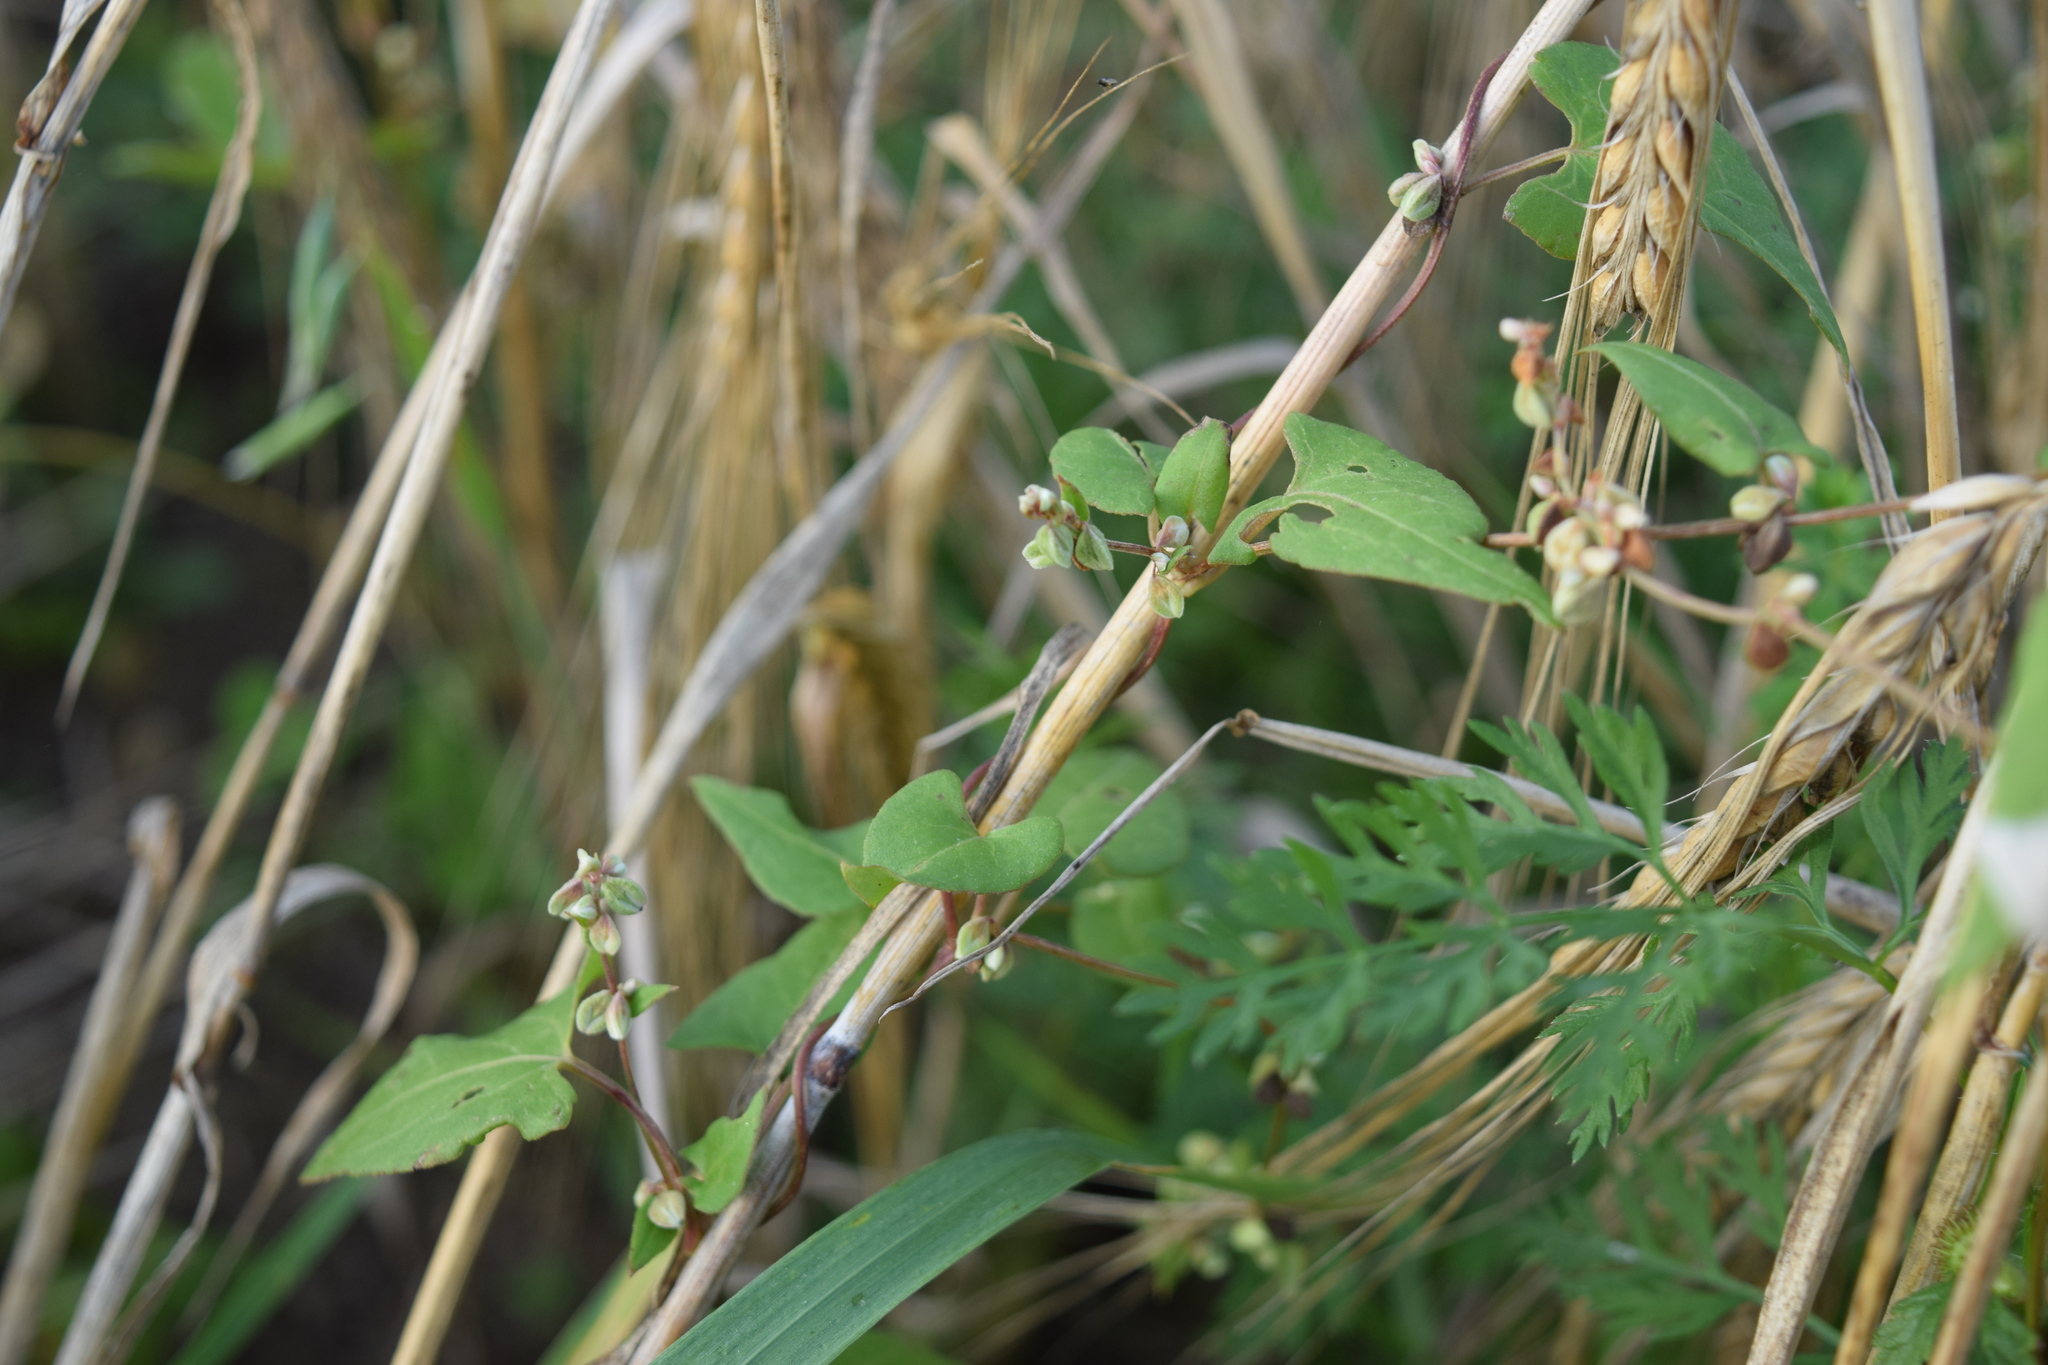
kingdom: Plantae
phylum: Tracheophyta
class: Magnoliopsida
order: Caryophyllales
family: Polygonaceae
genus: Fallopia
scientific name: Fallopia convolvulus
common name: Black bindweed
